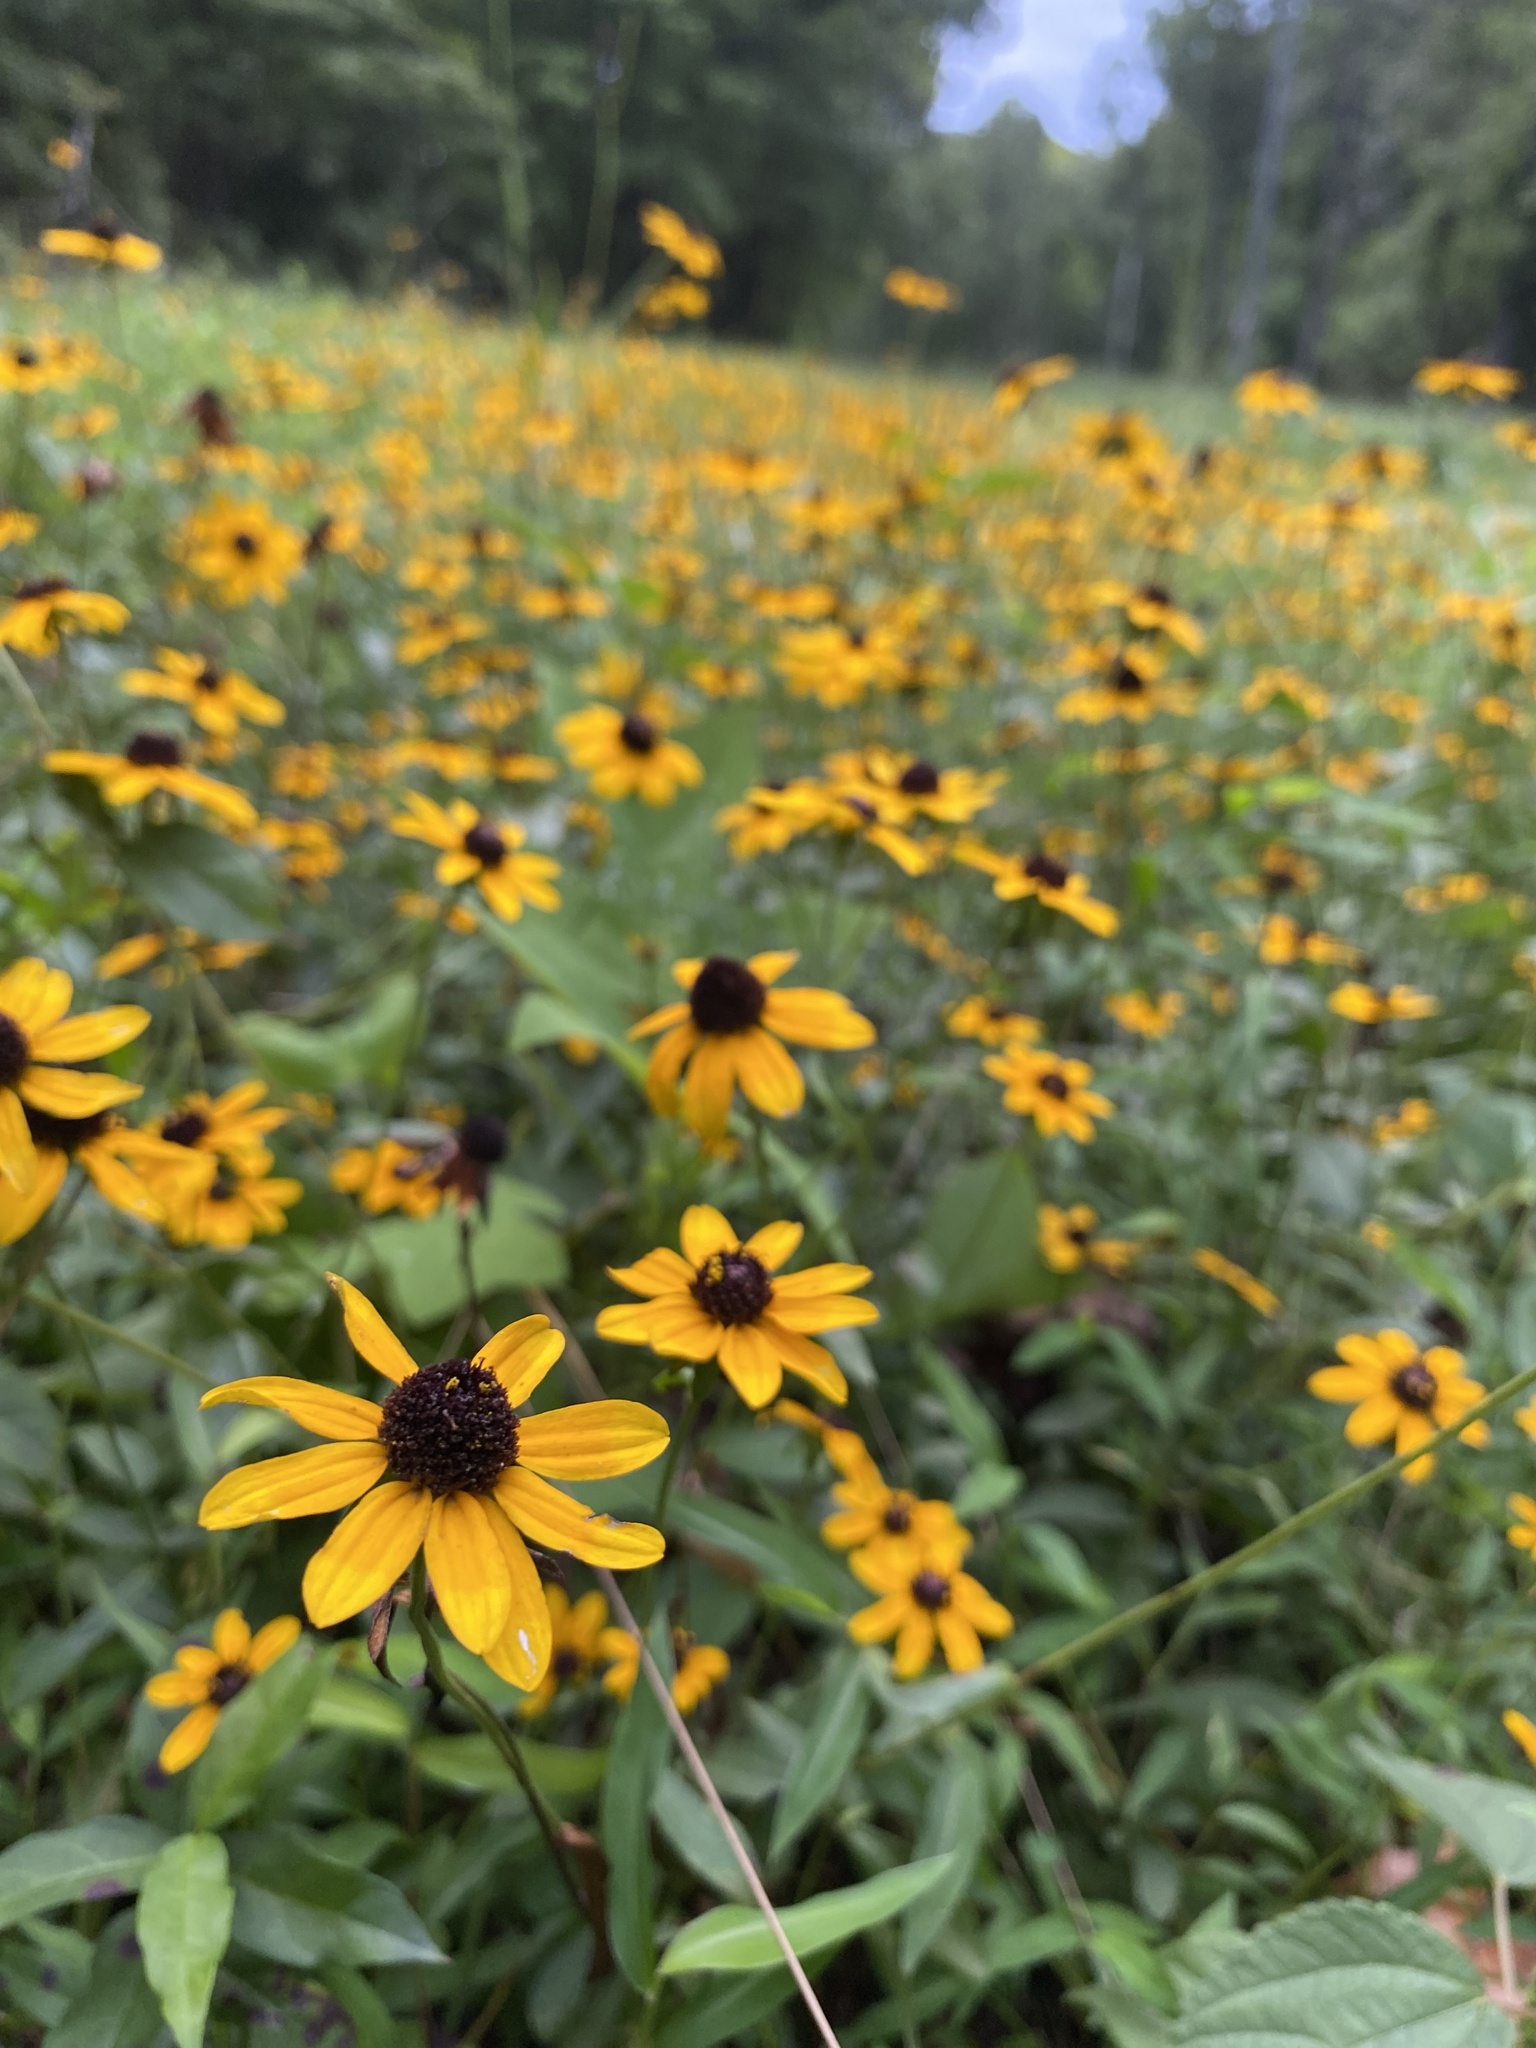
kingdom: Plantae
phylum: Tracheophyta
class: Magnoliopsida
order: Asterales
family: Asteraceae
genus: Rudbeckia
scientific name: Rudbeckia triloba
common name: Thin-leaved coneflower
